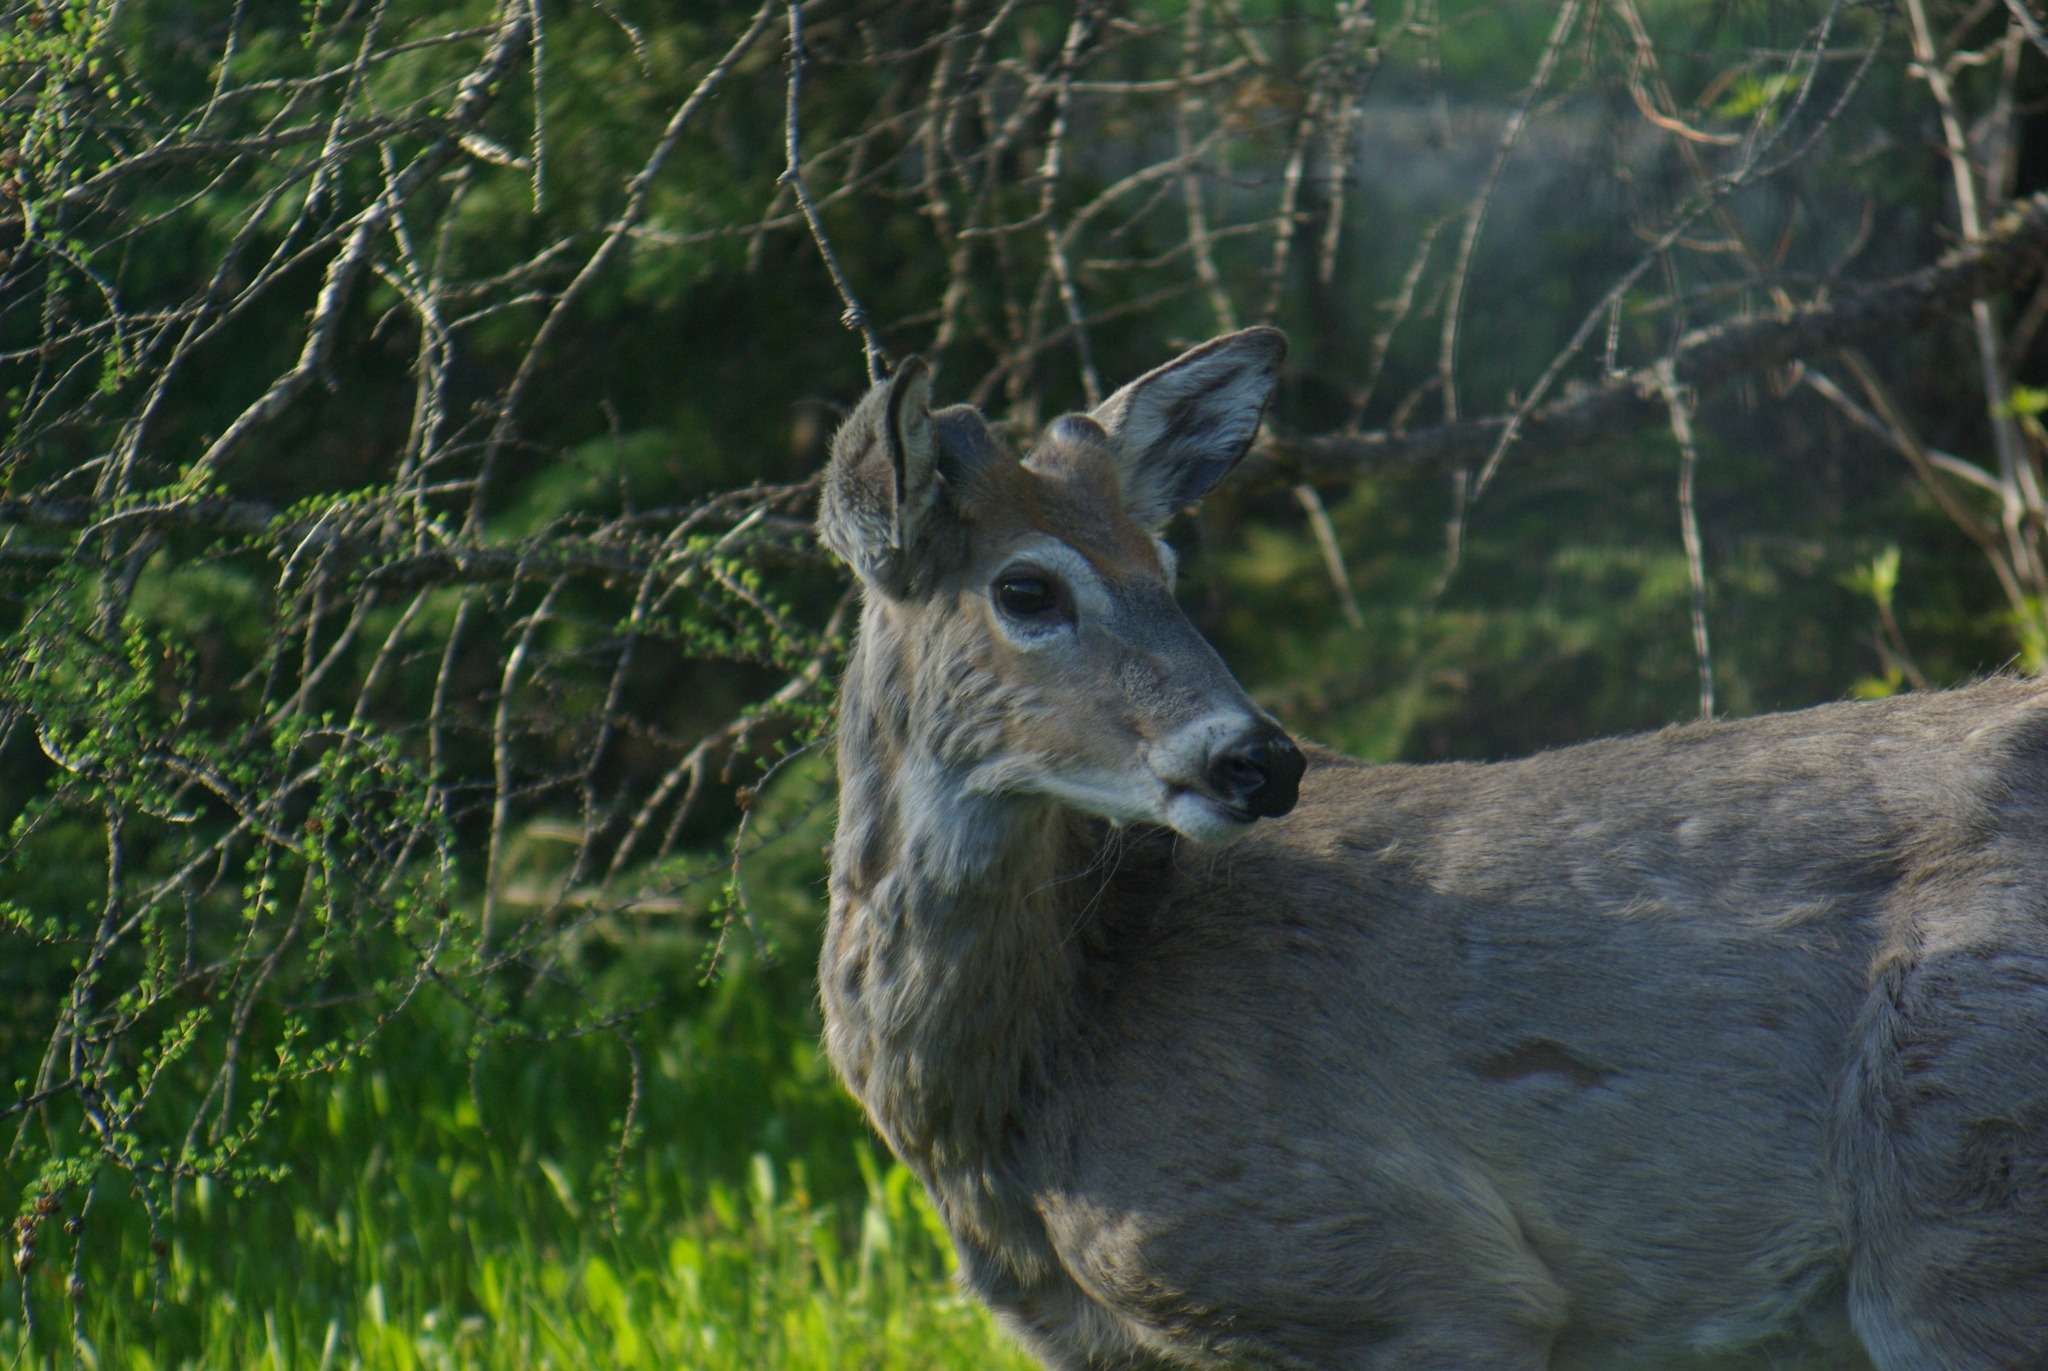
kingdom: Animalia
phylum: Chordata
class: Mammalia
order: Artiodactyla
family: Cervidae
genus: Odocoileus
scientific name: Odocoileus virginianus
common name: White-tailed deer
